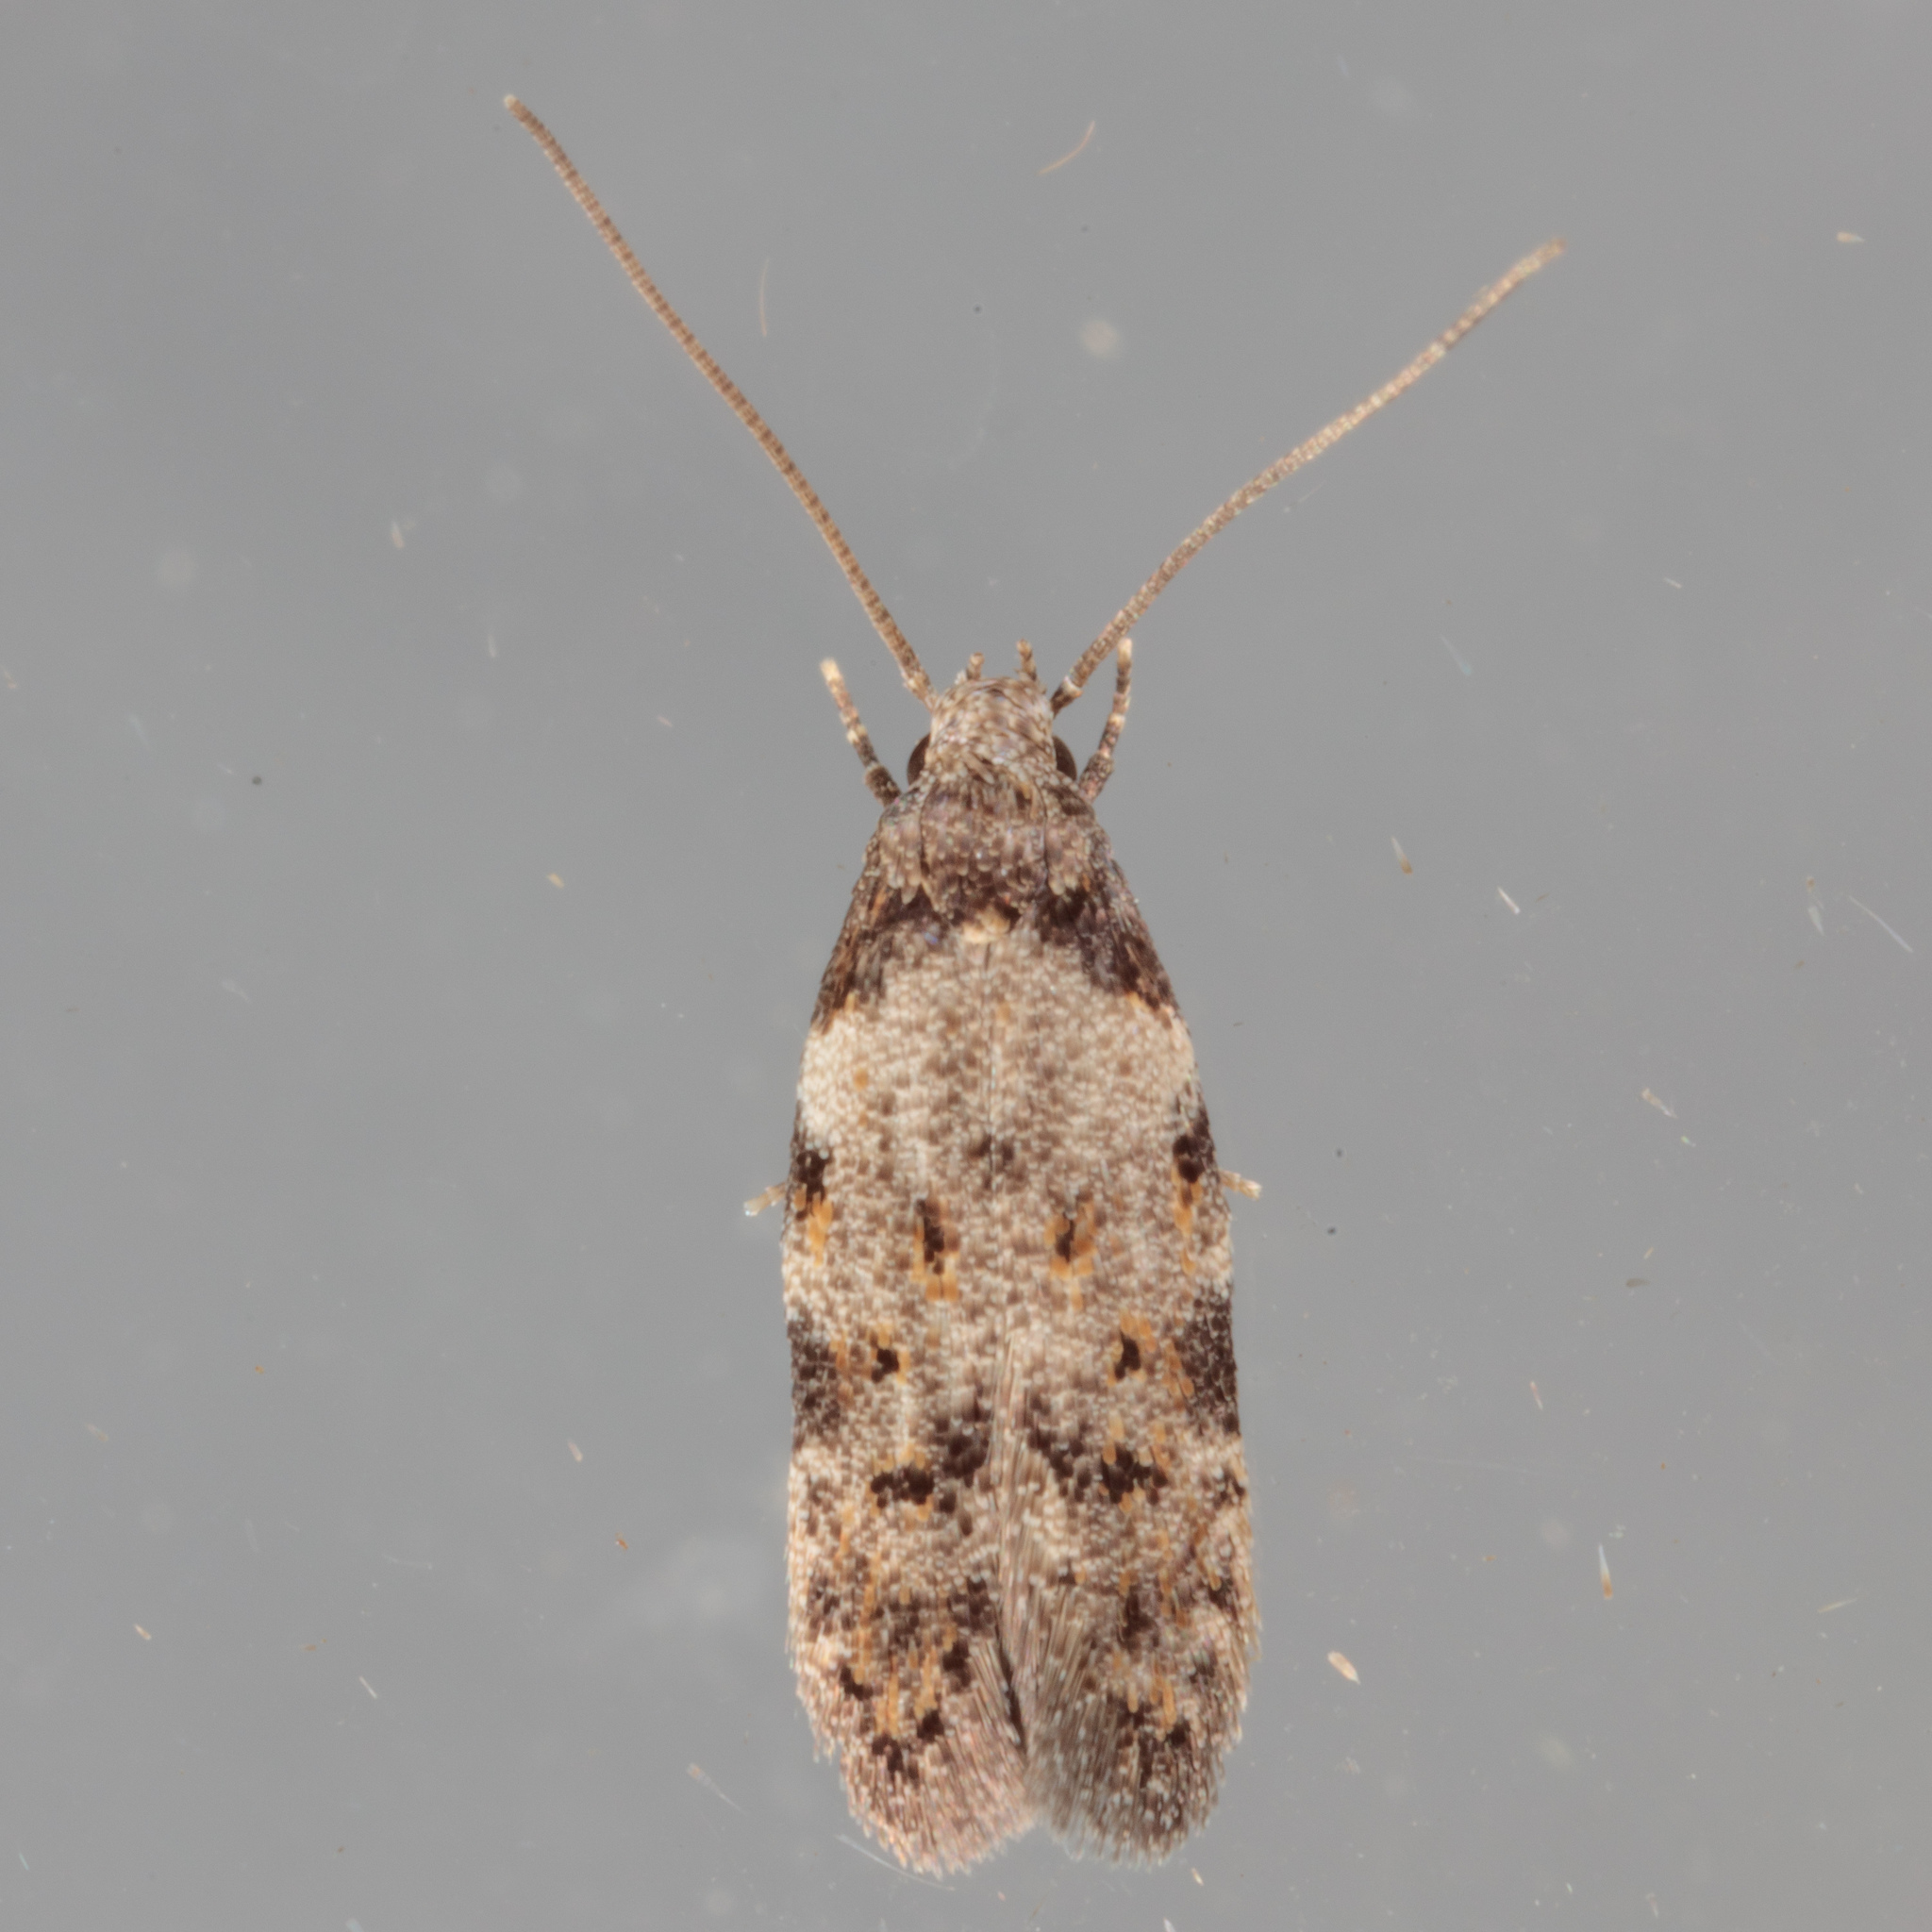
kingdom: Animalia
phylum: Arthropoda
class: Insecta
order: Lepidoptera
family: Autostichidae
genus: Taygete
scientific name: Taygete attributella
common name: Triangle-marked twirler moth
